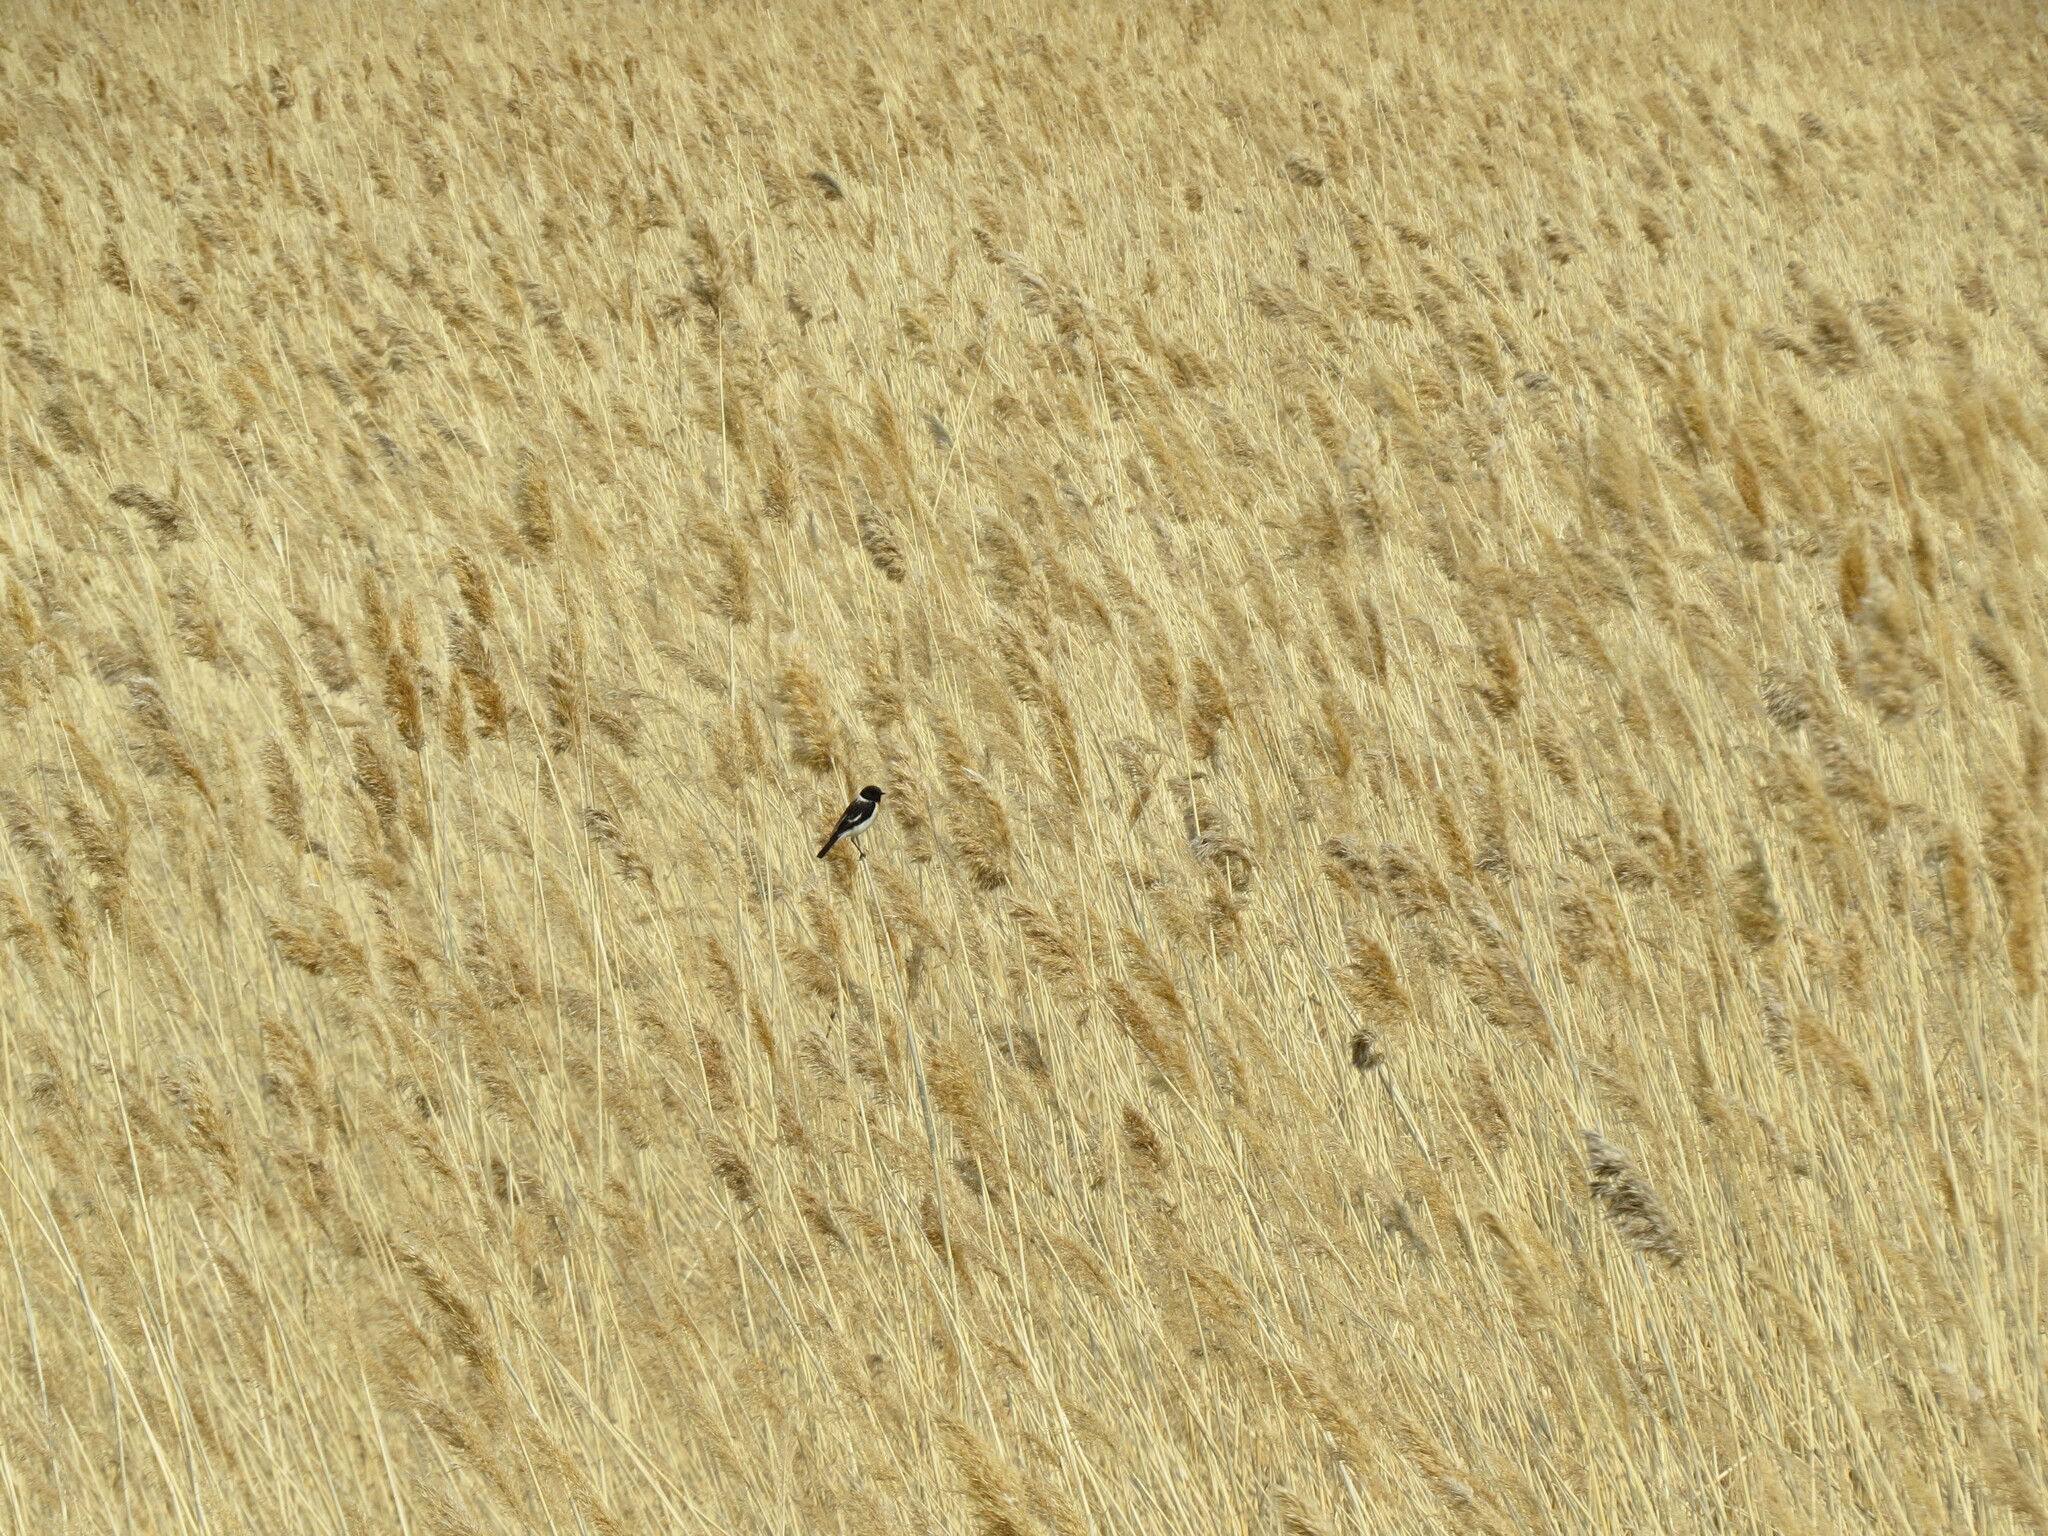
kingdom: Animalia
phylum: Chordata
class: Aves
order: Passeriformes
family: Muscicapidae
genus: Saxicola
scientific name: Saxicola maurus
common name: Siberian stonechat
